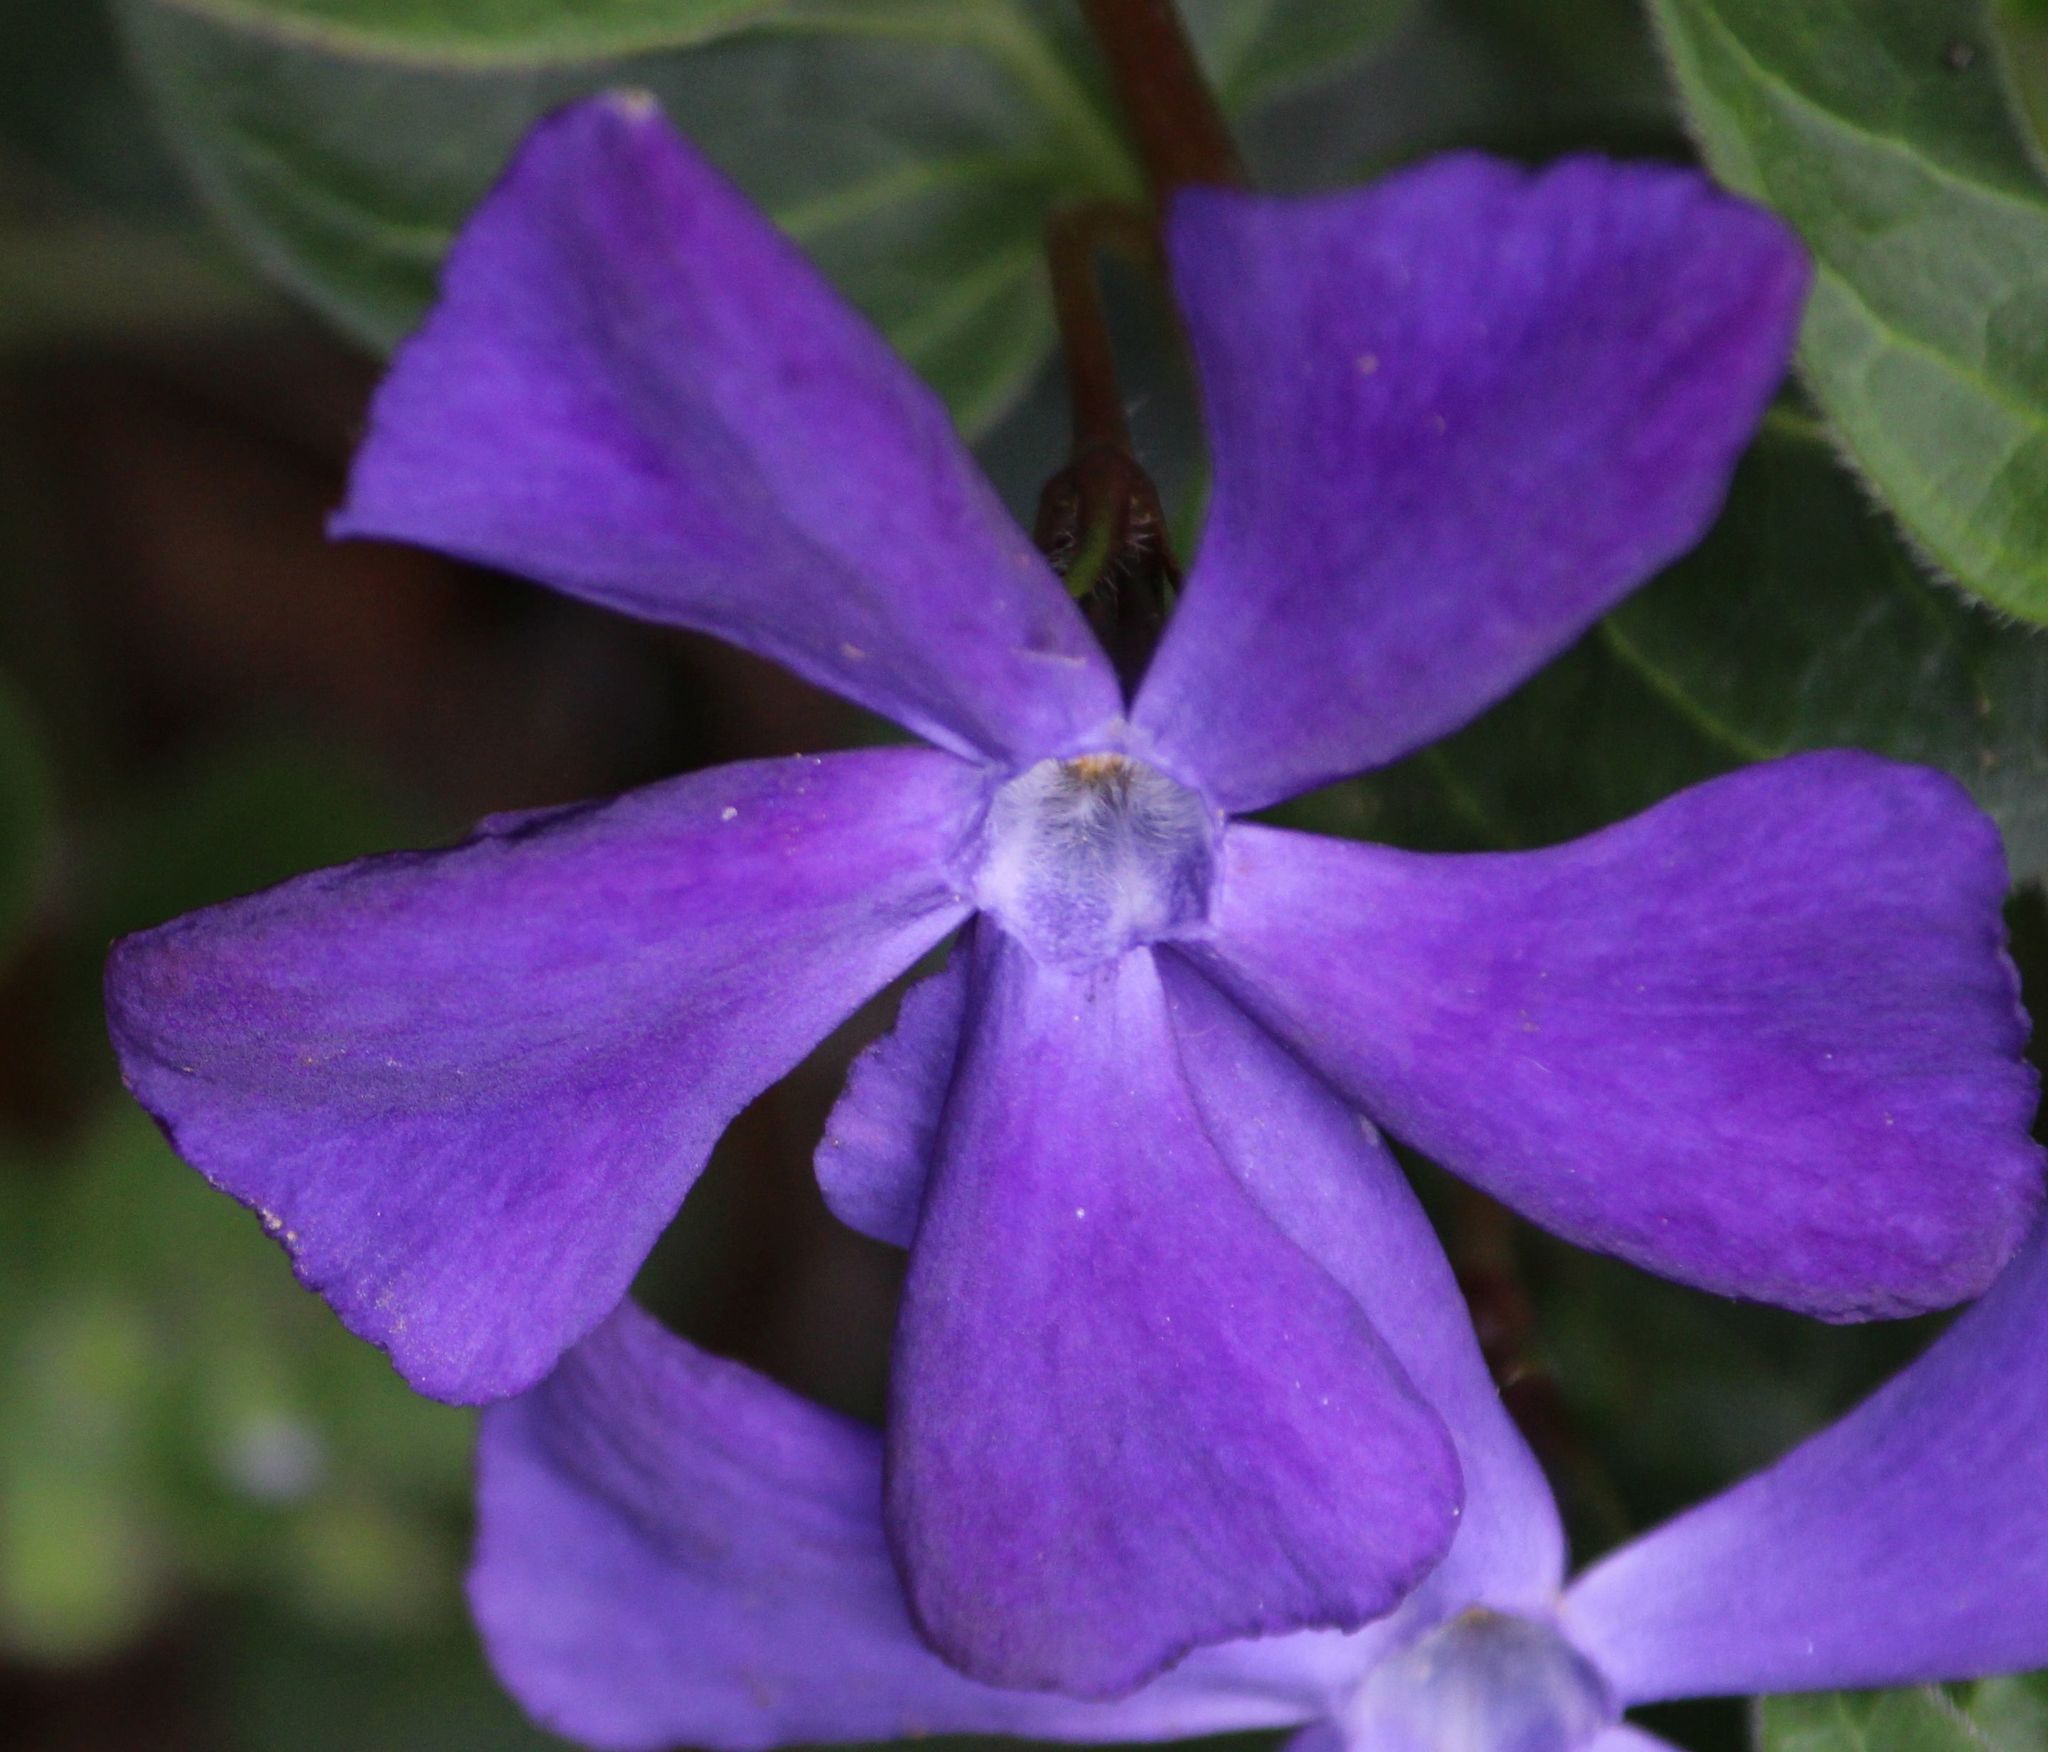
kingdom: Plantae
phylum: Tracheophyta
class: Magnoliopsida
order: Gentianales
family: Apocynaceae
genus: Vinca
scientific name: Vinca major
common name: Greater periwinkle
